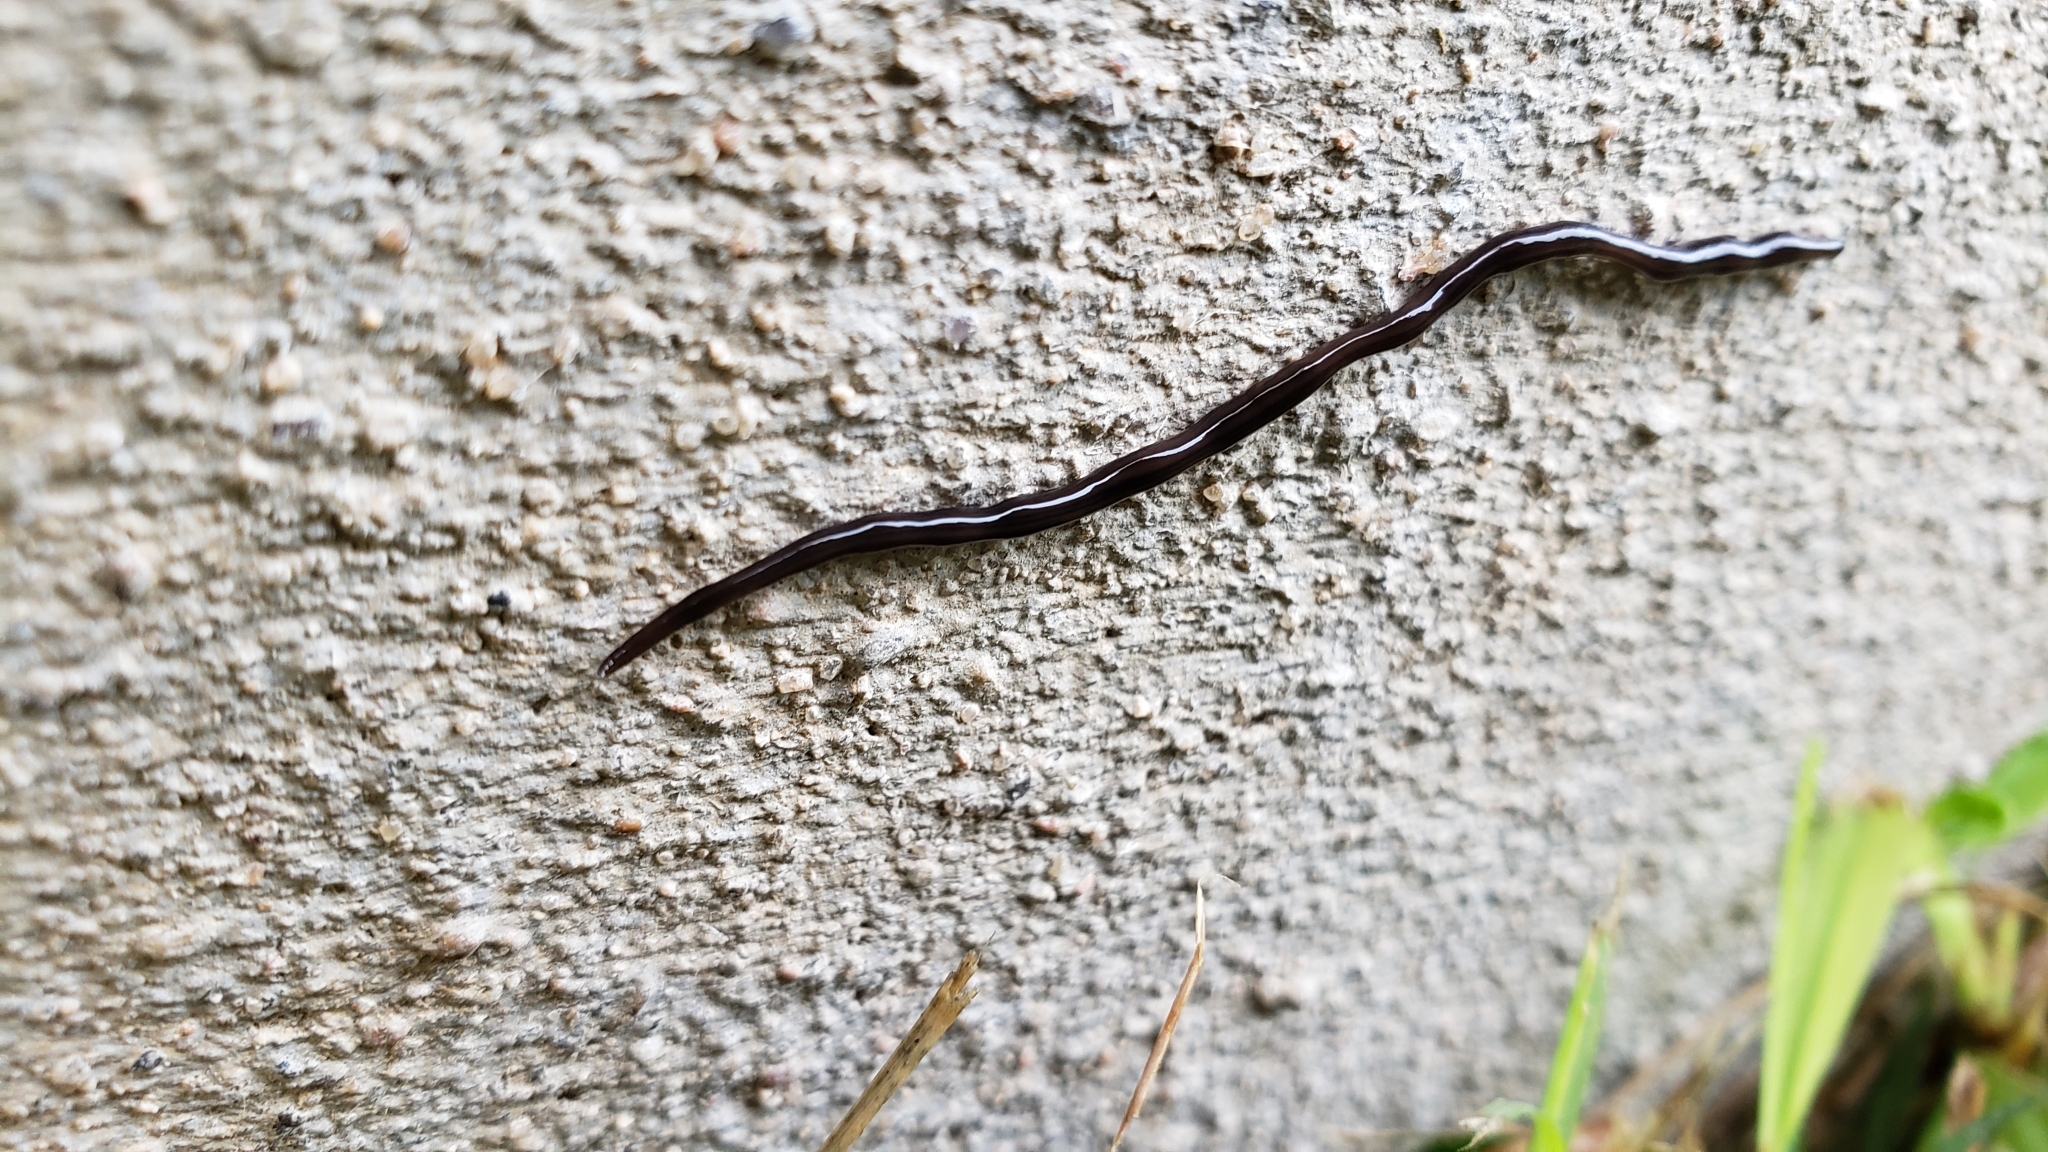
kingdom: Animalia
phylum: Platyhelminthes
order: Tricladida
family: Geoplanidae
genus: Endeavouria
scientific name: Endeavouria septemlineata
